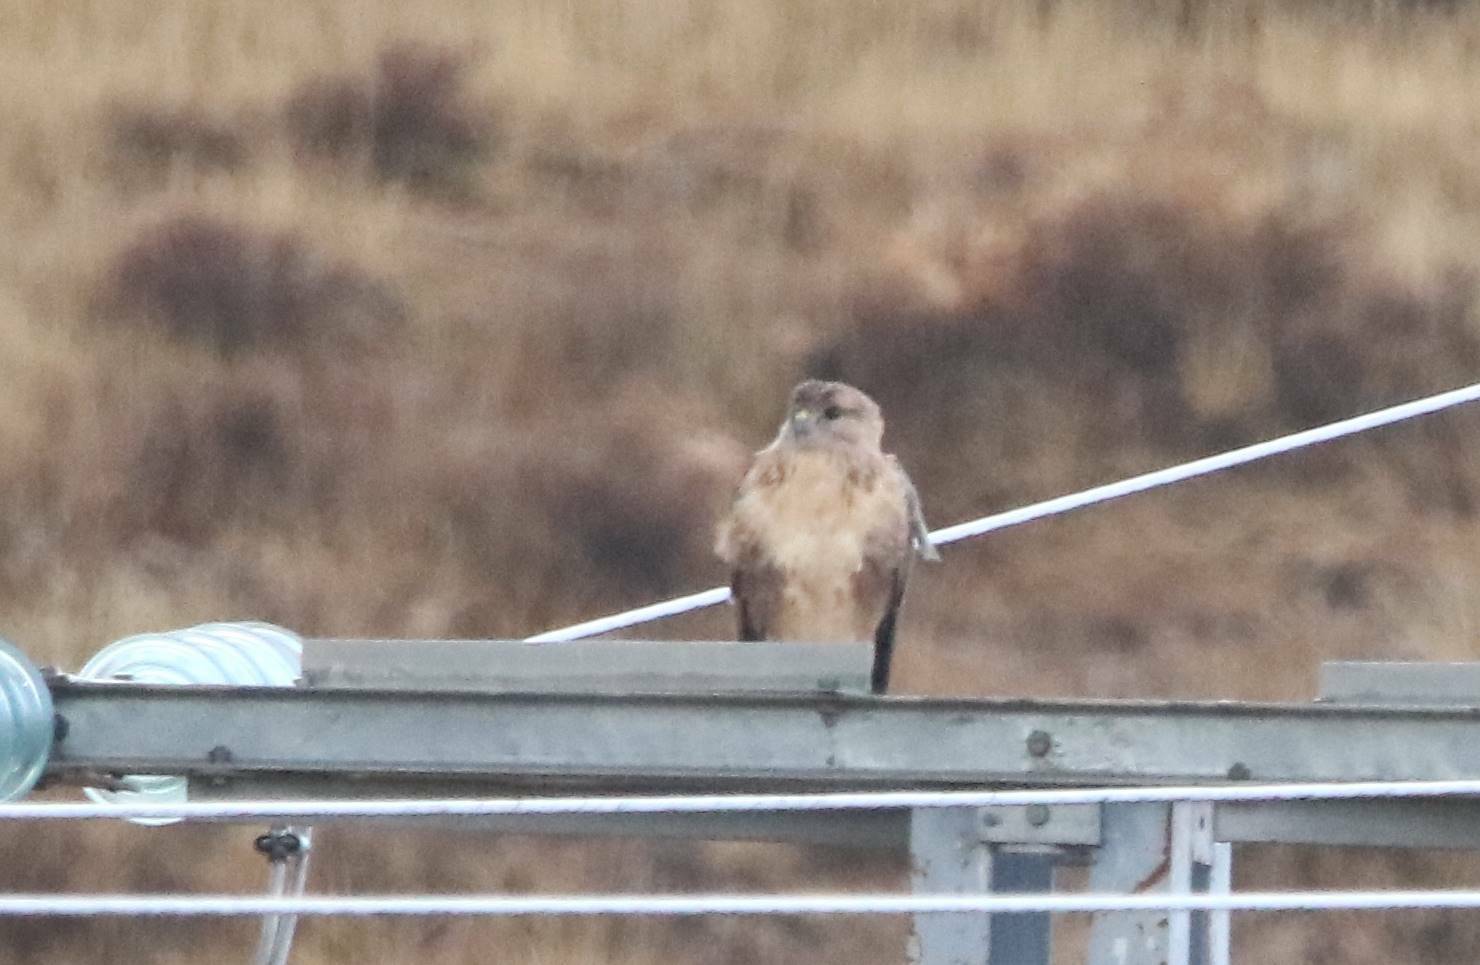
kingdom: Animalia
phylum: Chordata
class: Aves
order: Accipitriformes
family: Accipitridae
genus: Buteo
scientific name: Buteo rufinus
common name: Long-legged buzzard
